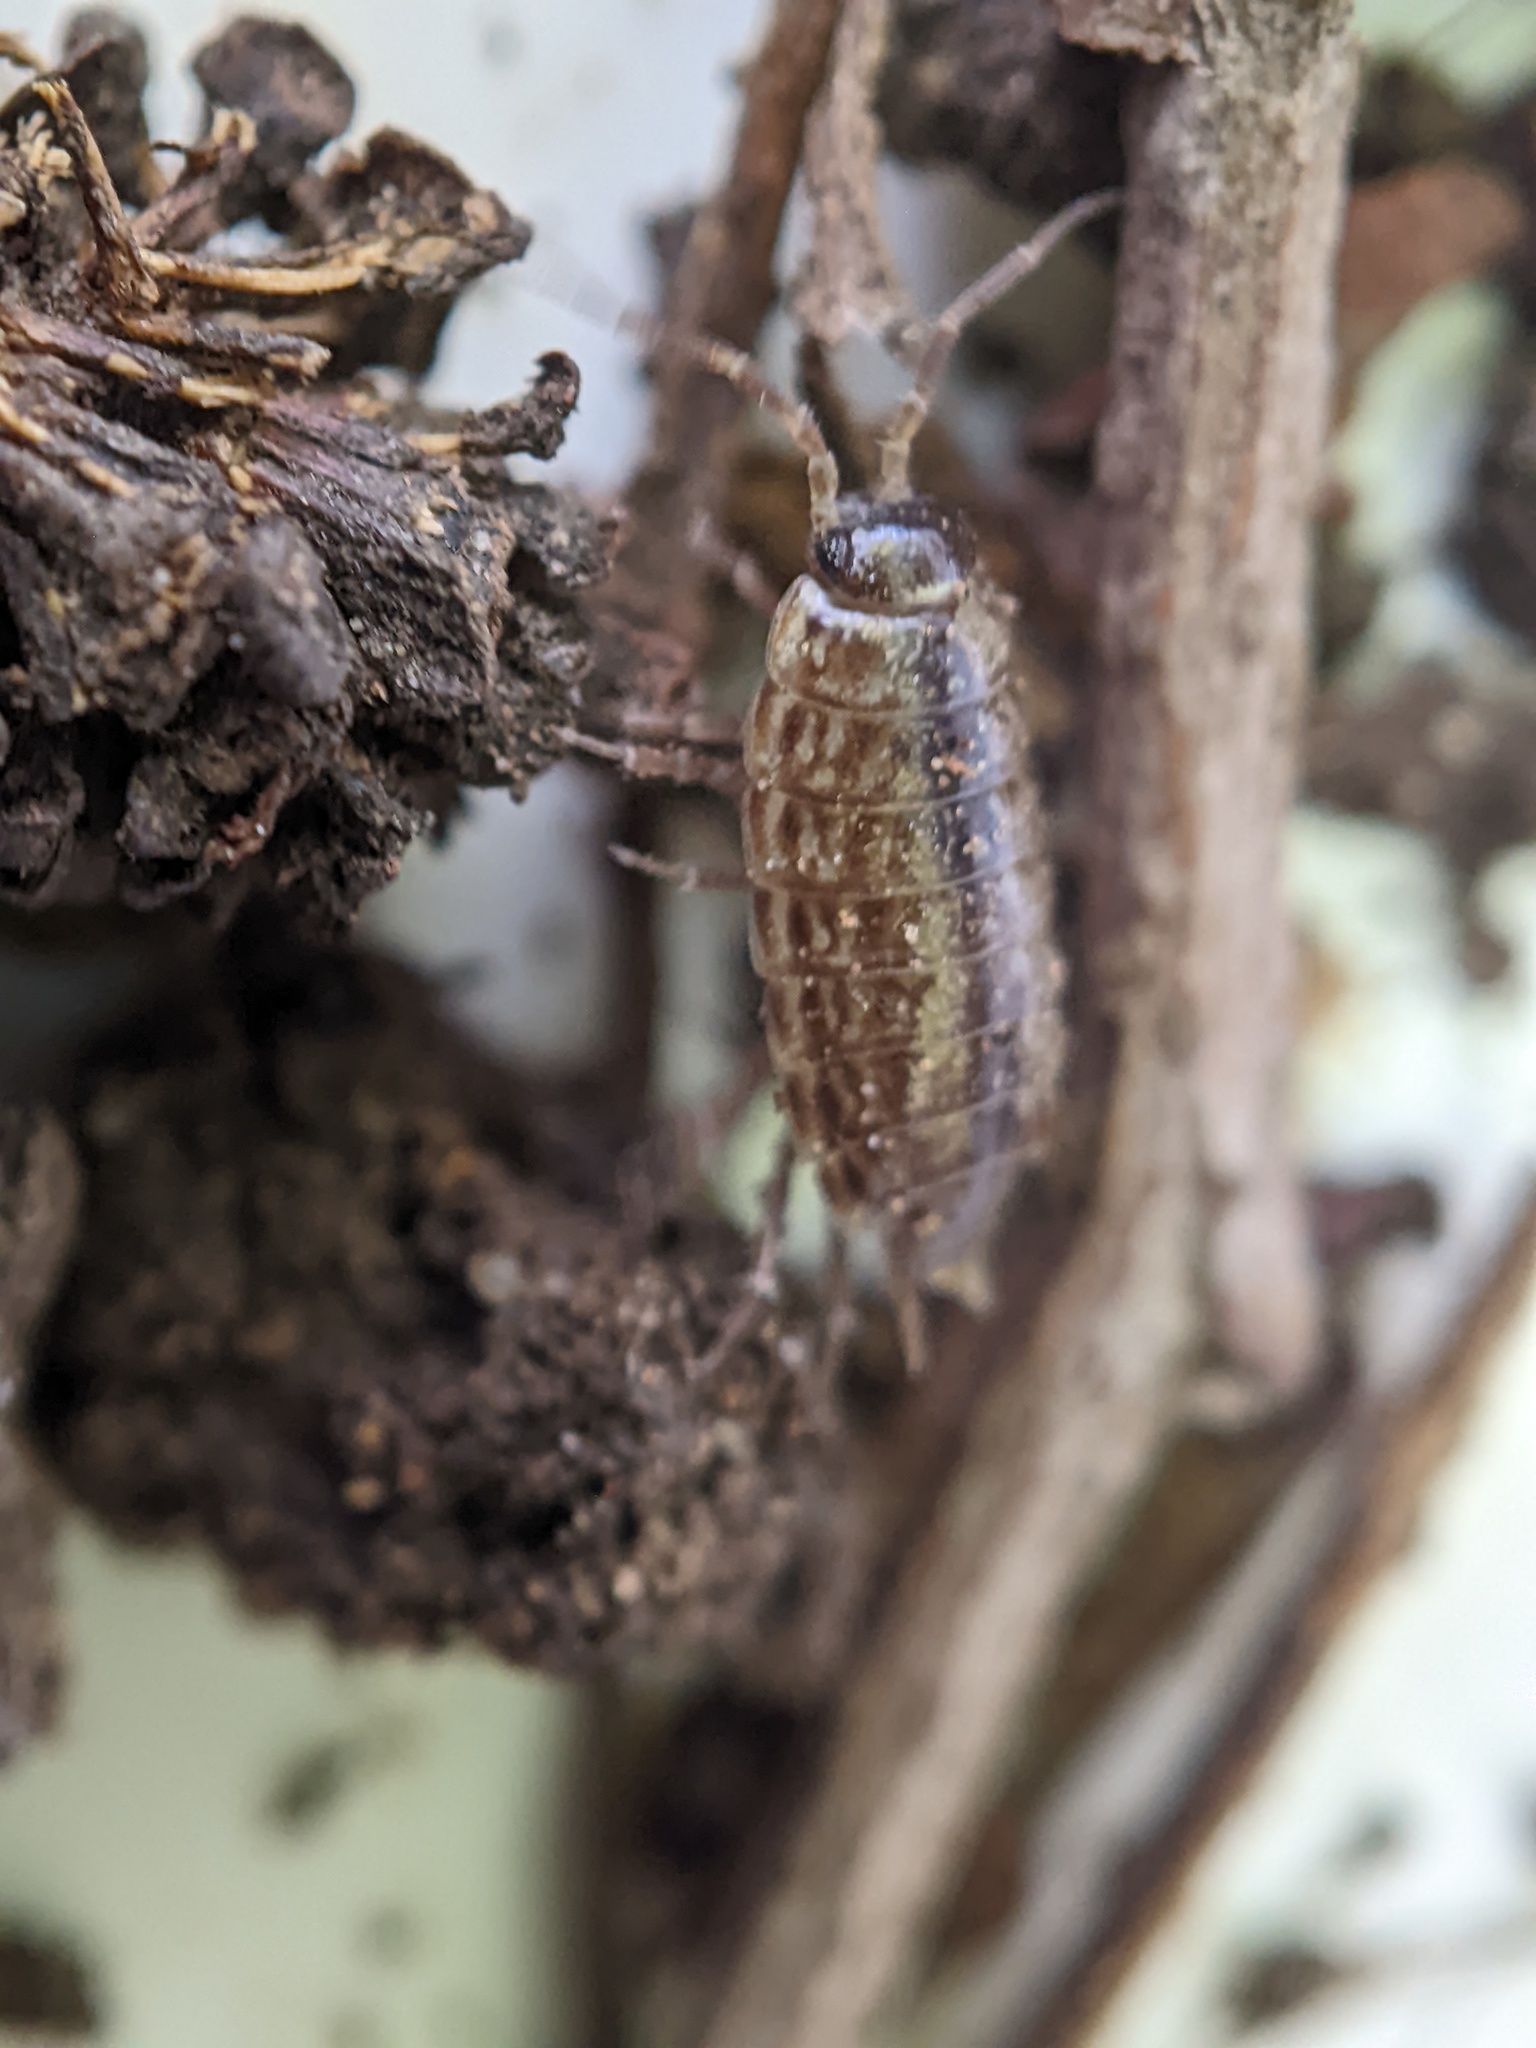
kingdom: Animalia
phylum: Arthropoda
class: Malacostraca
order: Isopoda
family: Philosciidae
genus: Philoscia
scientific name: Philoscia muscorum
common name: Common striped woodlouse
